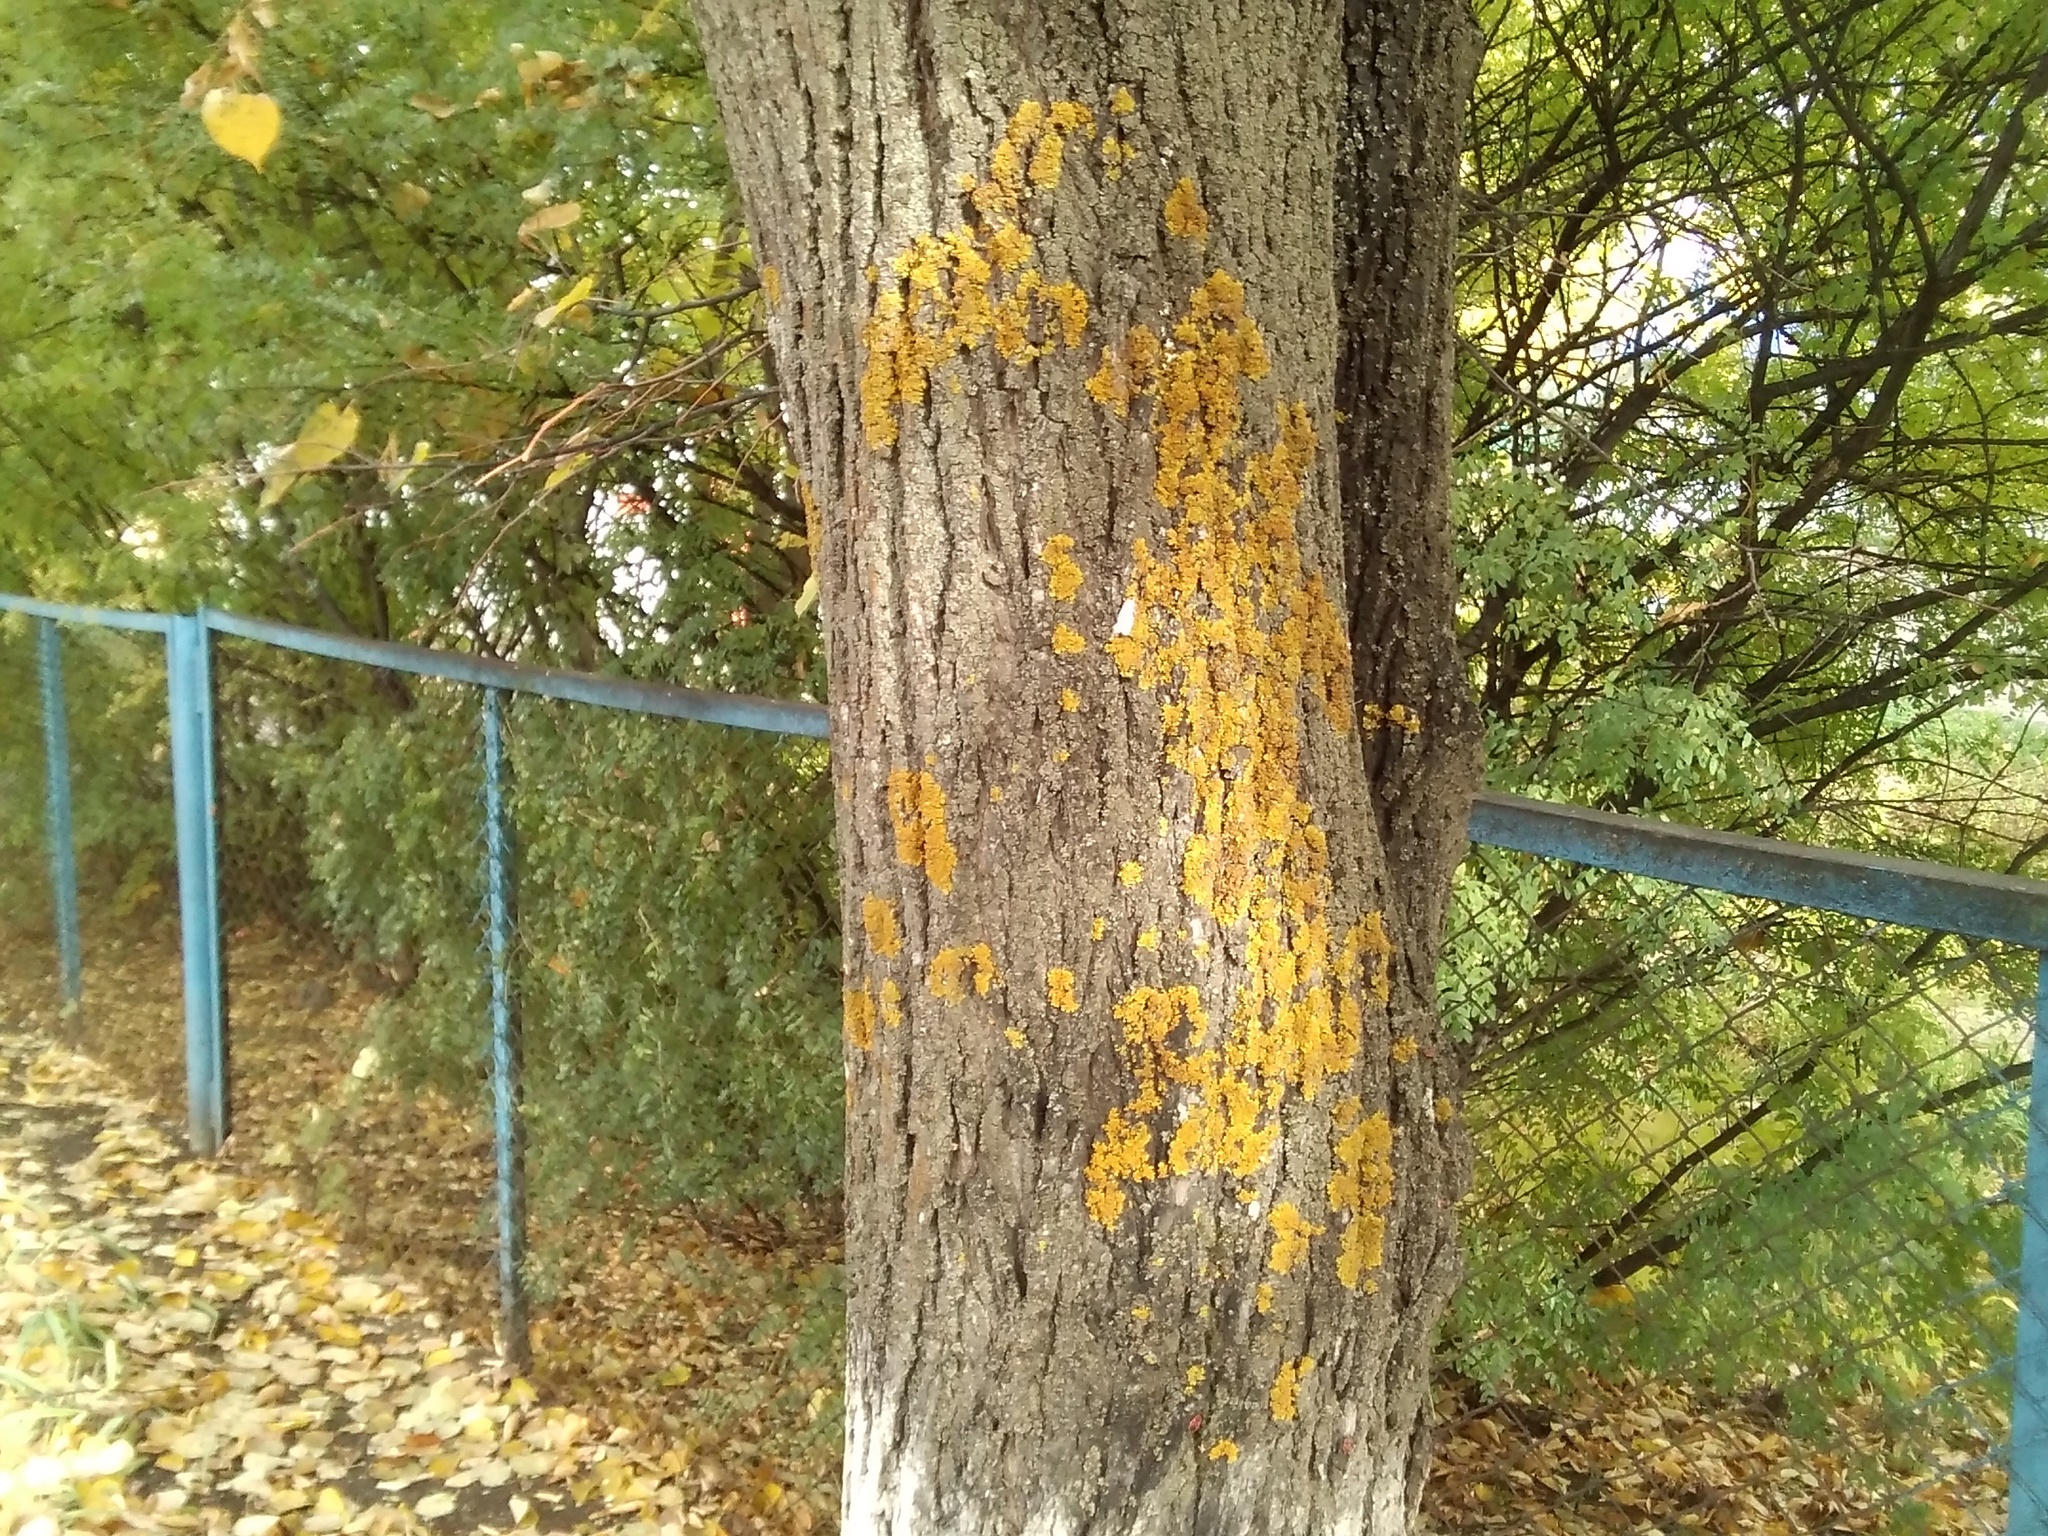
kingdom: Fungi
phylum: Ascomycota
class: Lecanoromycetes
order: Teloschistales
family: Teloschistaceae
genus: Xanthoria
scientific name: Xanthoria parietina
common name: Common orange lichen
